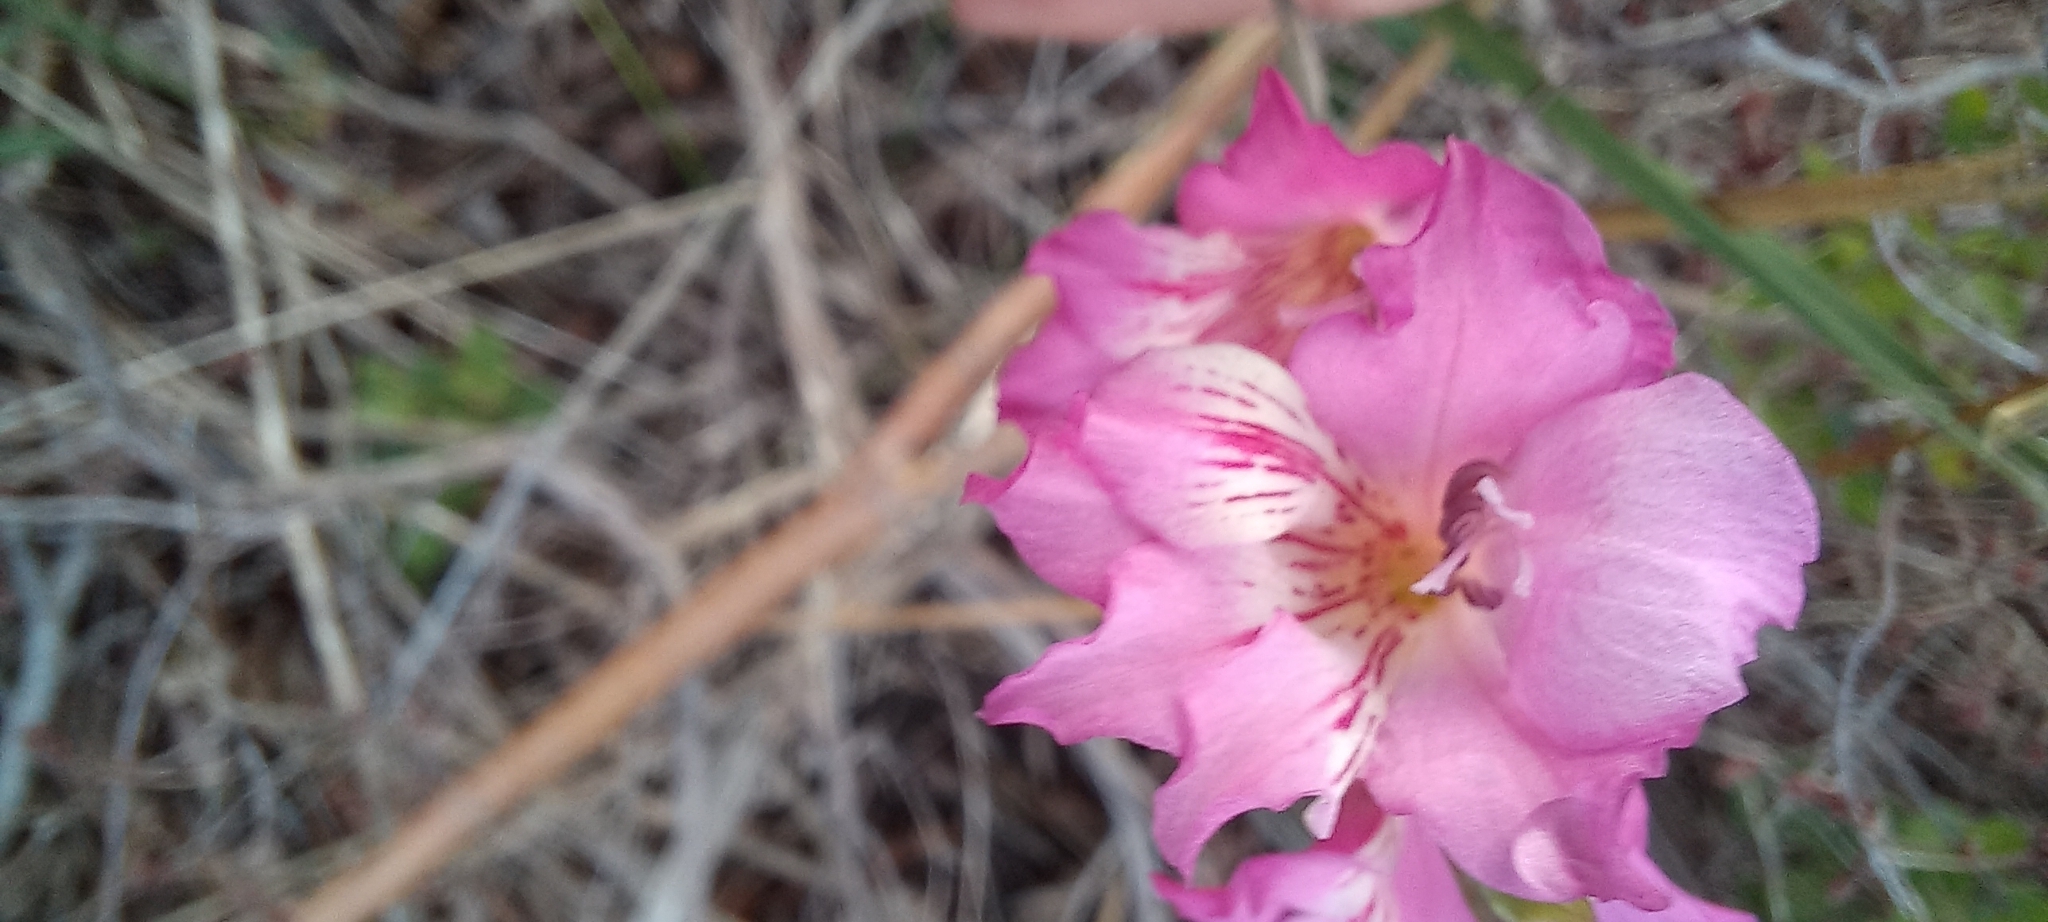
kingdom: Plantae
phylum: Tracheophyta
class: Liliopsida
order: Asparagales
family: Iridaceae
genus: Gladiolus
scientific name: Gladiolus hirsutus
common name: Small pink afrikaner
